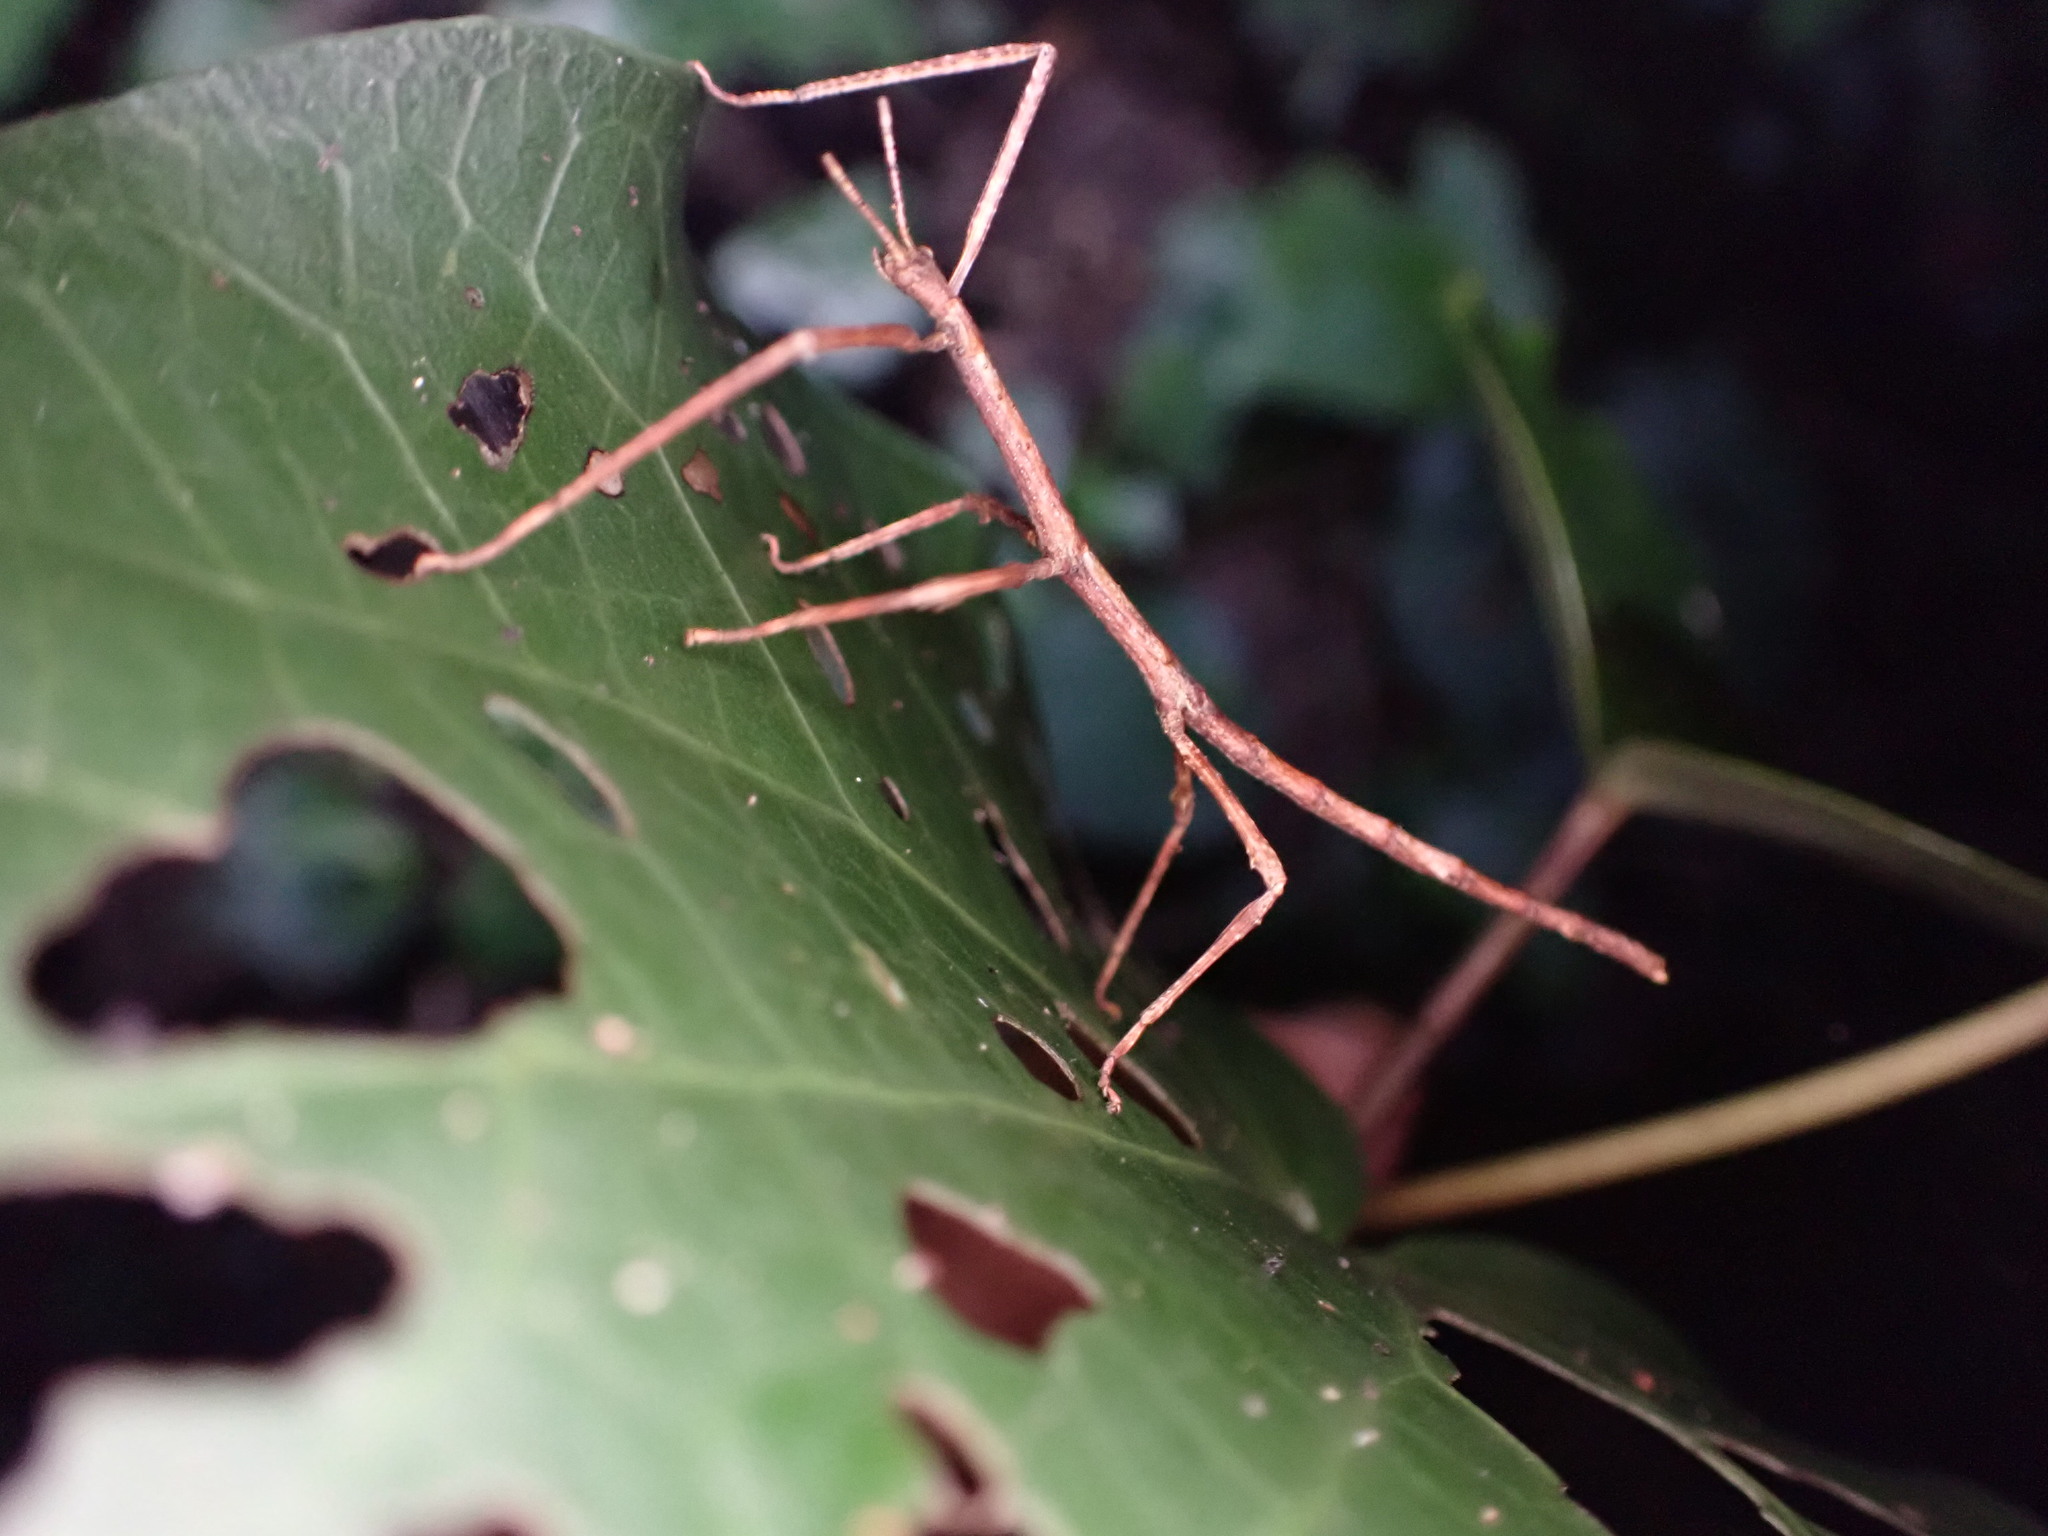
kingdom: Animalia
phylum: Arthropoda
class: Insecta
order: Phasmida
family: Phasmatidae
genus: Argosarchus
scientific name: Argosarchus horridus
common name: Bristly stick insect
